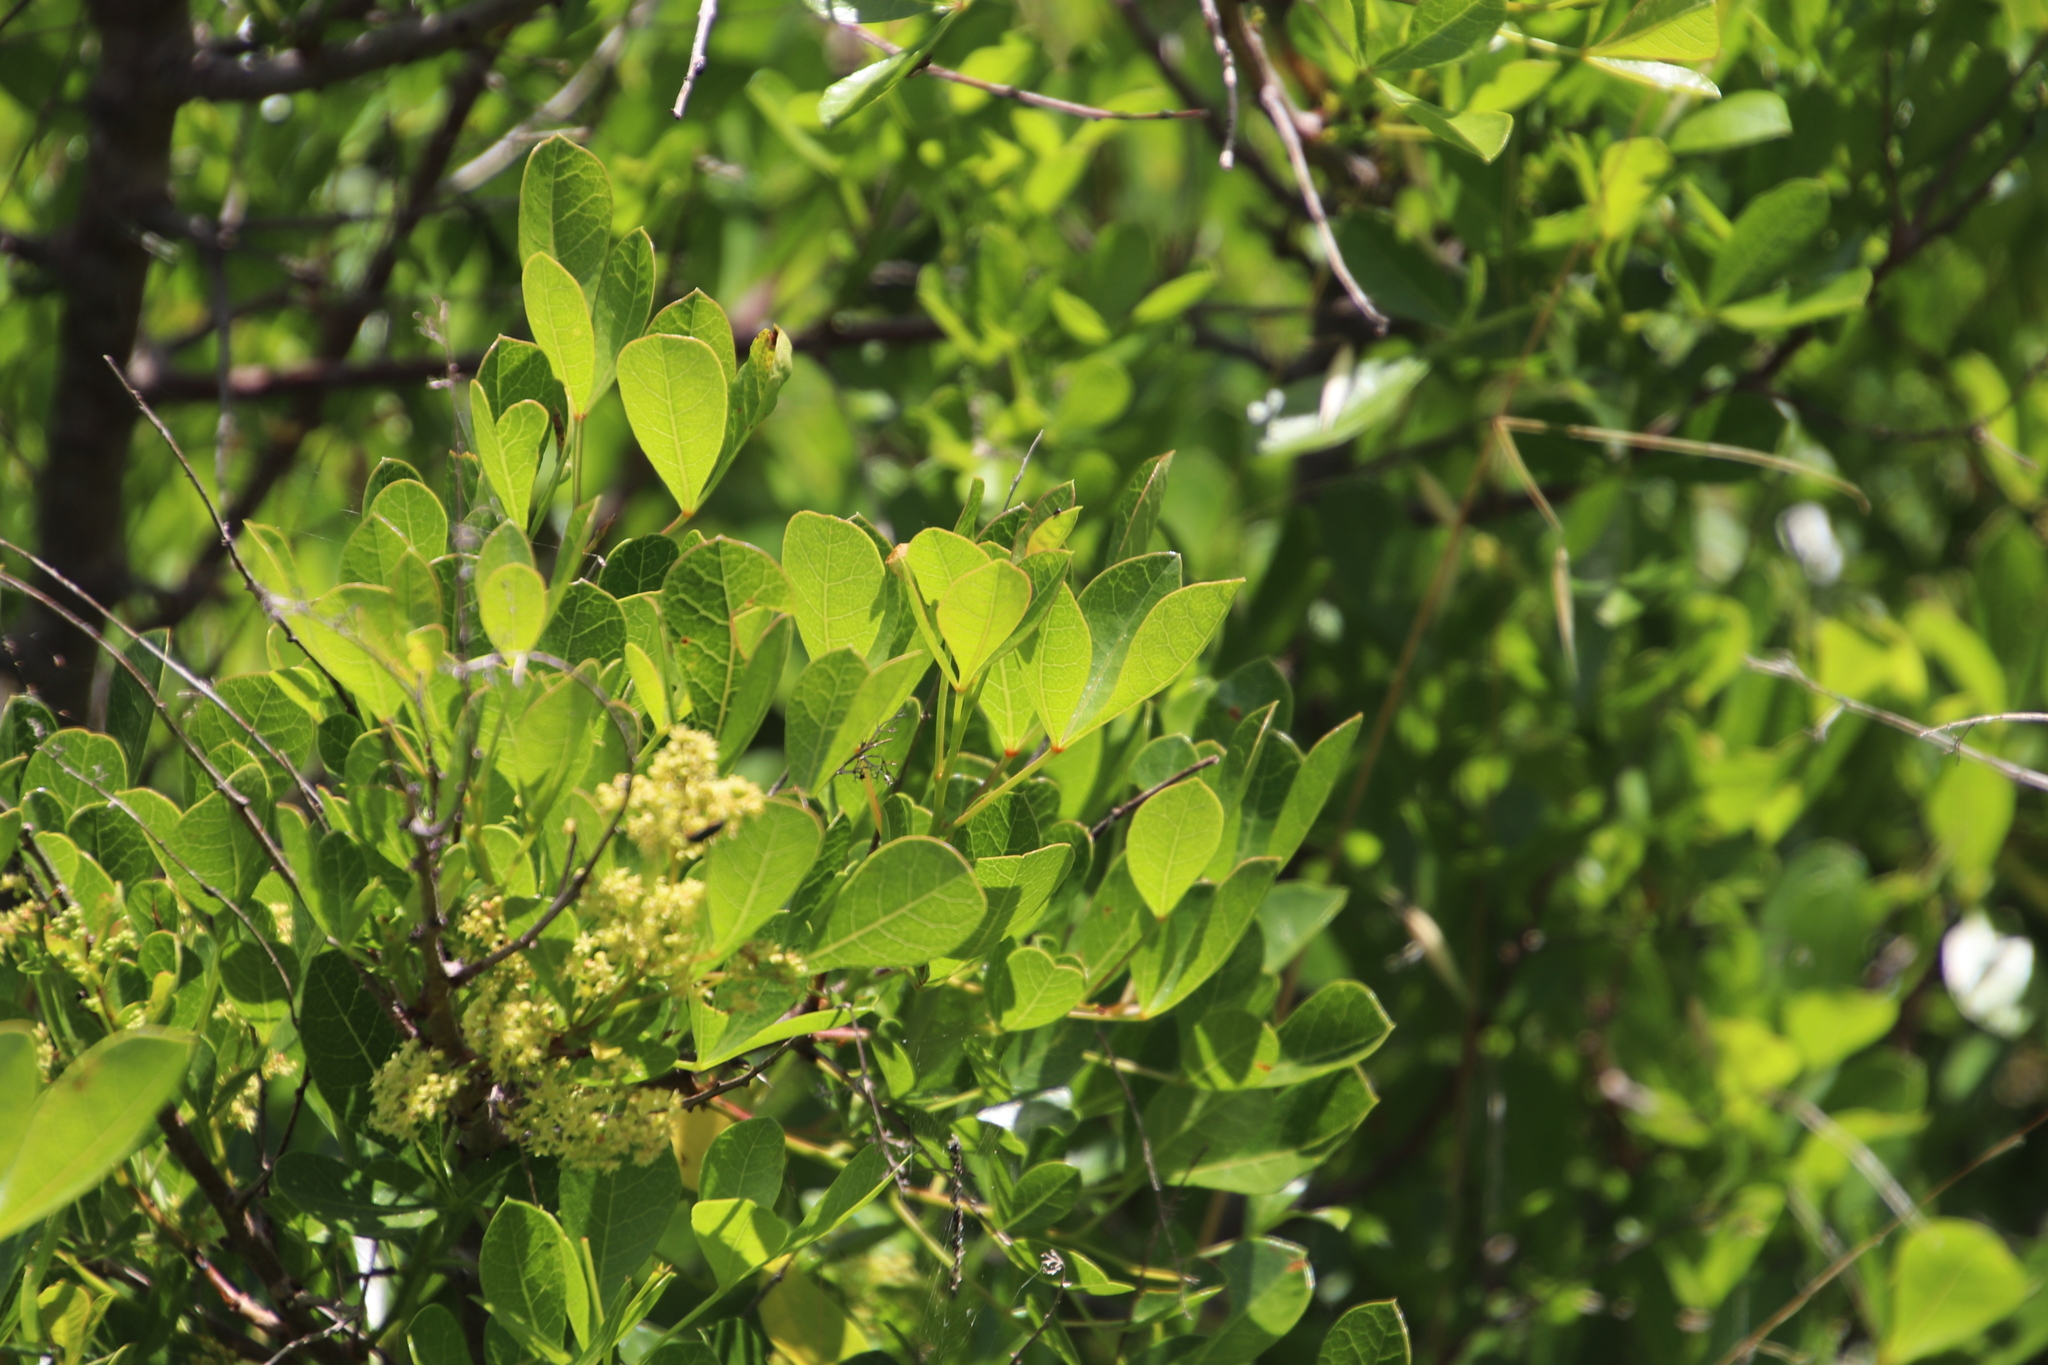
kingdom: Plantae
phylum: Tracheophyta
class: Magnoliopsida
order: Sapindales
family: Anacardiaceae
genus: Searsia
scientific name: Searsia laevigata
